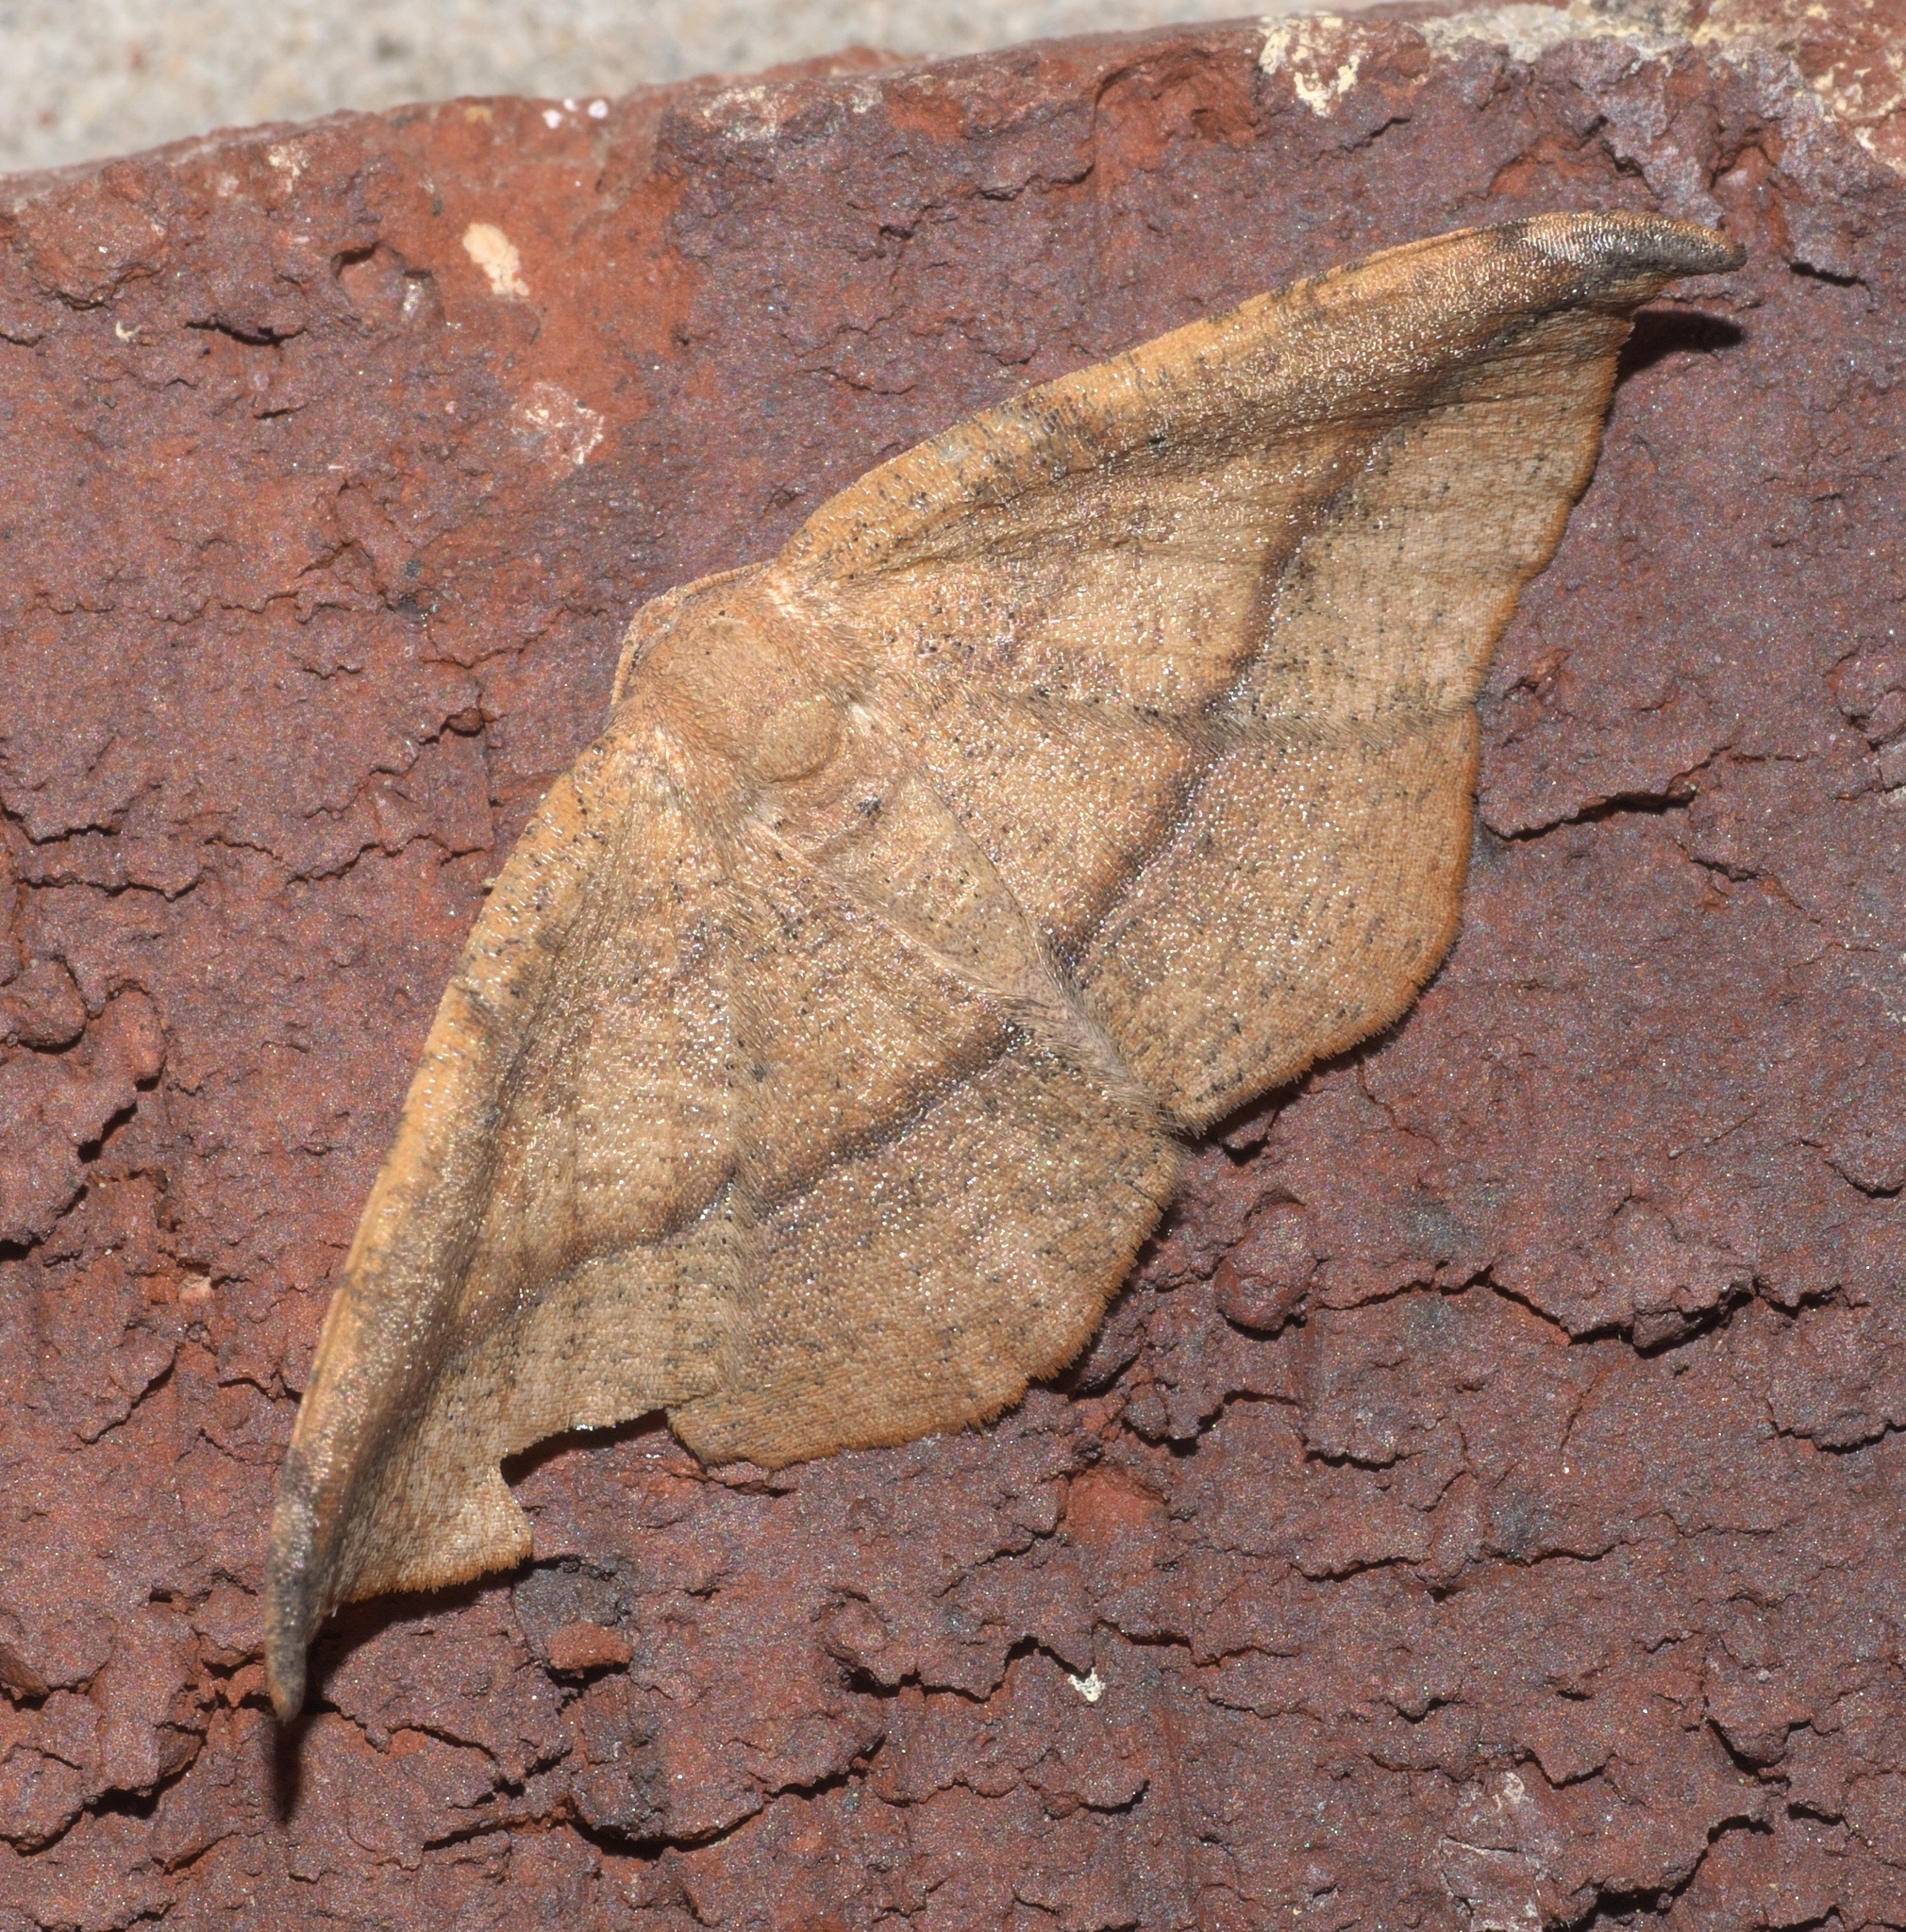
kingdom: Animalia
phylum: Arthropoda
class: Insecta
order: Lepidoptera
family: Geometridae
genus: Patalene
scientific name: Patalene olyzonaria
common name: Juniper geometer moth
